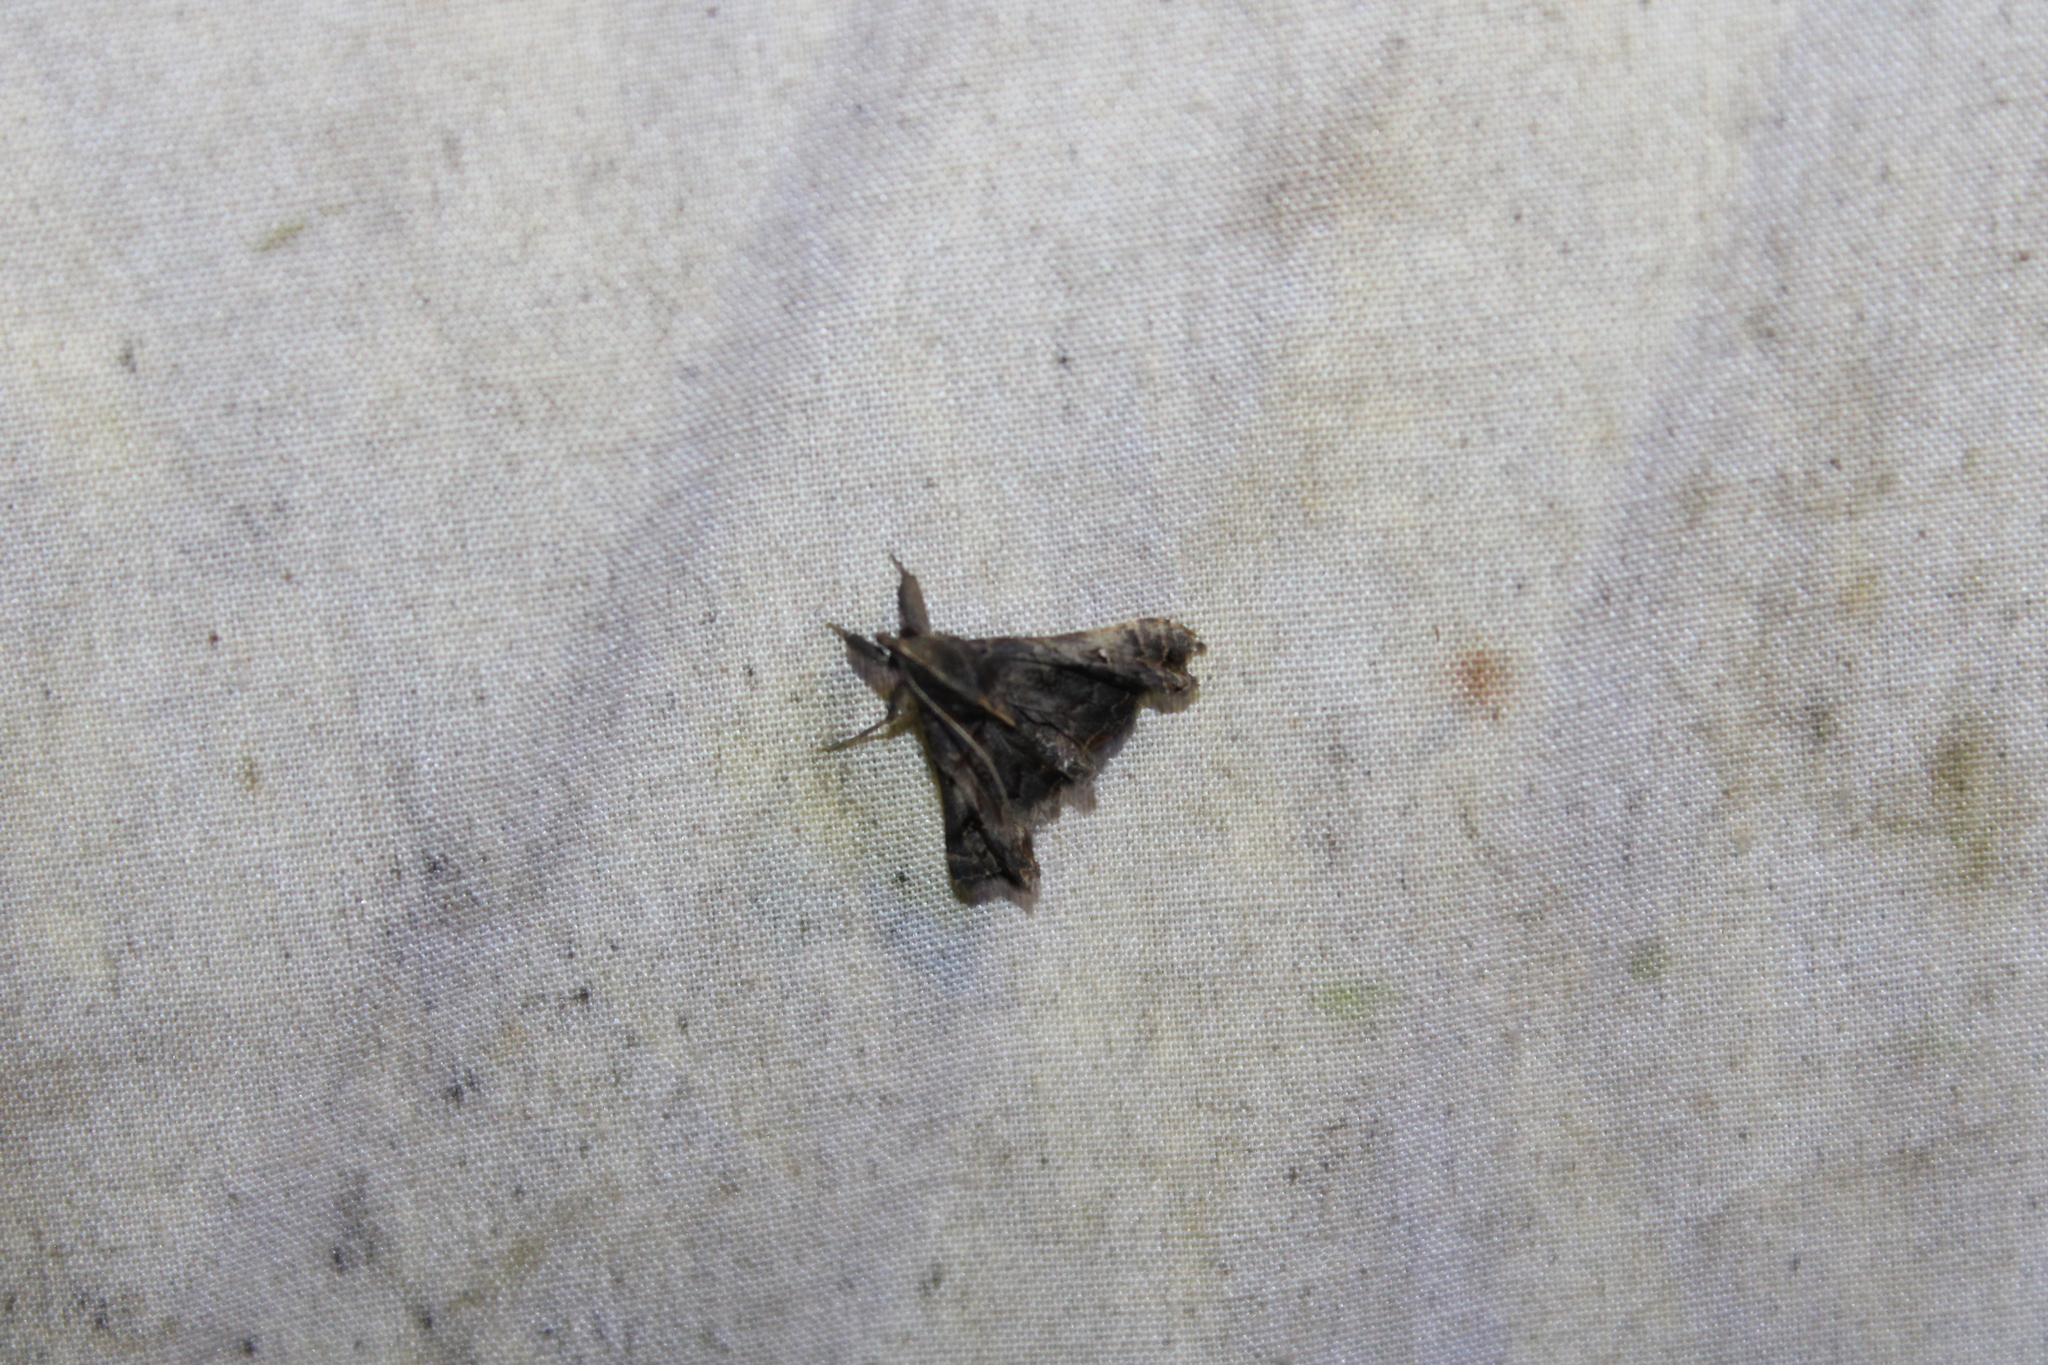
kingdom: Animalia
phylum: Arthropoda
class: Insecta
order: Lepidoptera
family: Erebidae
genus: Palthis
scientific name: Palthis asopialis
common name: Faint-spotted palthis moth
